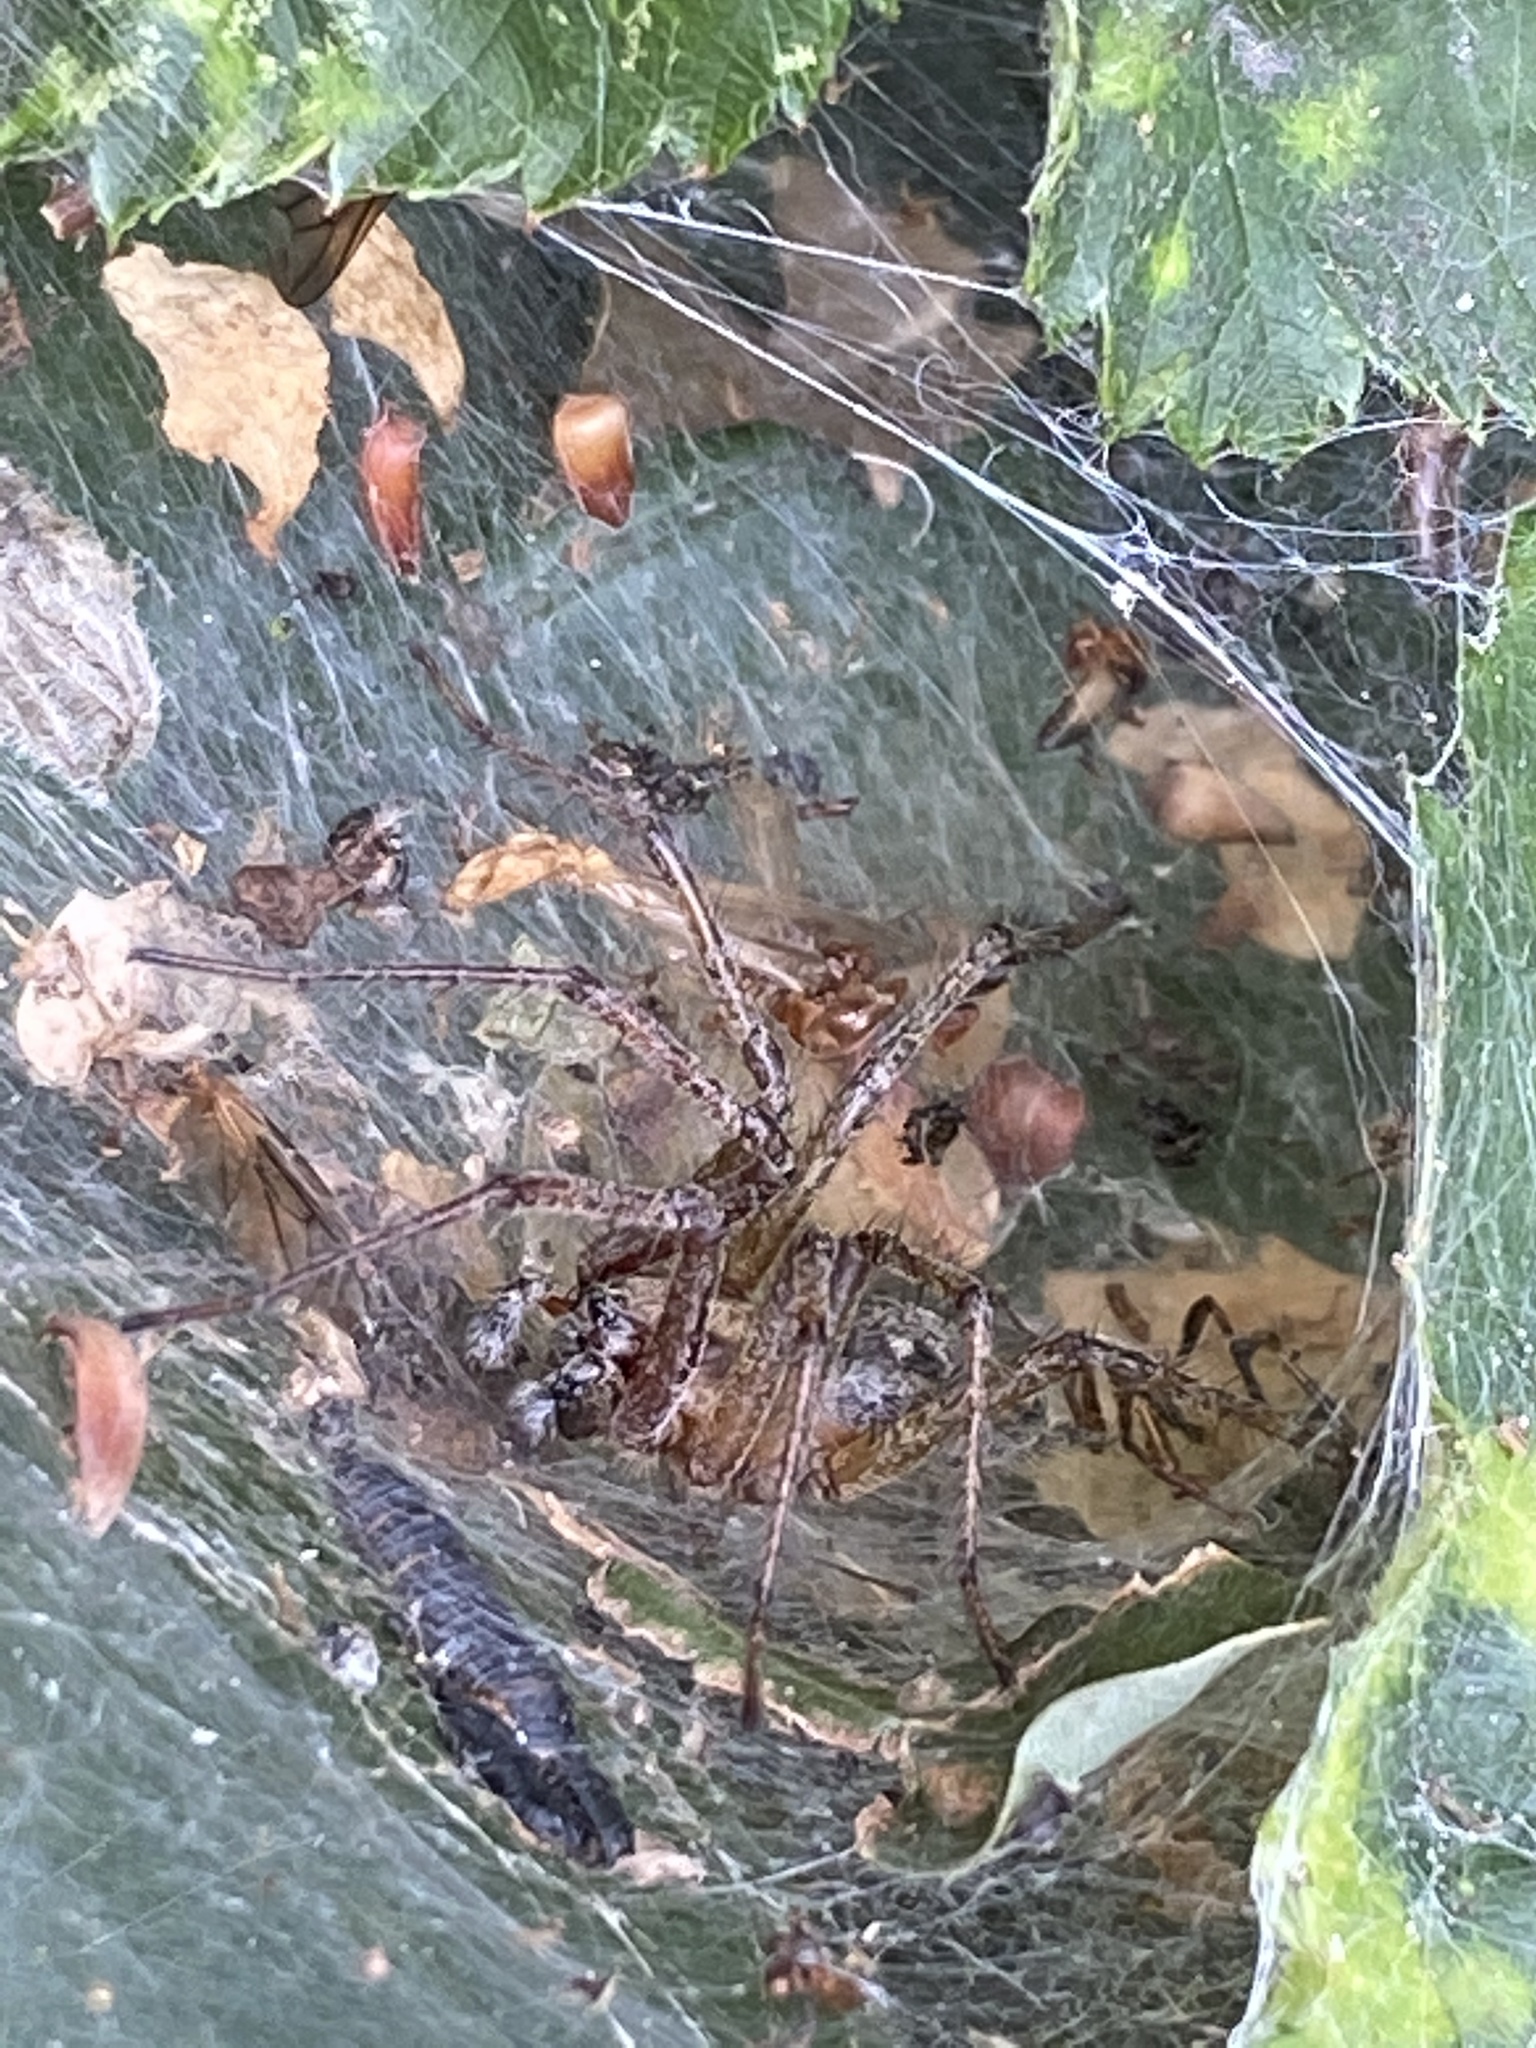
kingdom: Animalia
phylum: Arthropoda
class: Arachnida
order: Araneae
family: Agelenidae
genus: Agelena
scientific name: Agelena labyrinthica
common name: Labyrinth spider
